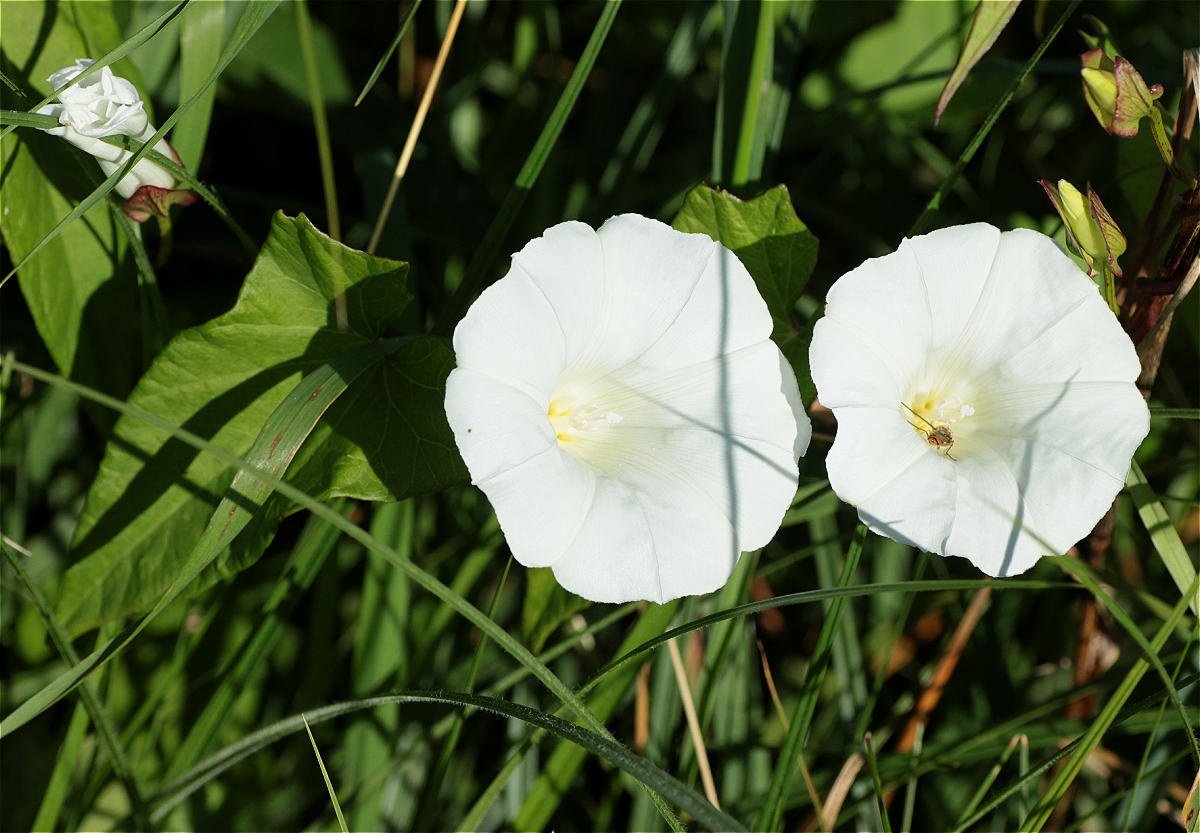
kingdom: Plantae
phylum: Tracheophyta
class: Magnoliopsida
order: Solanales
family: Convolvulaceae
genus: Calystegia
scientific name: Calystegia sepium
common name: Hedge bindweed
